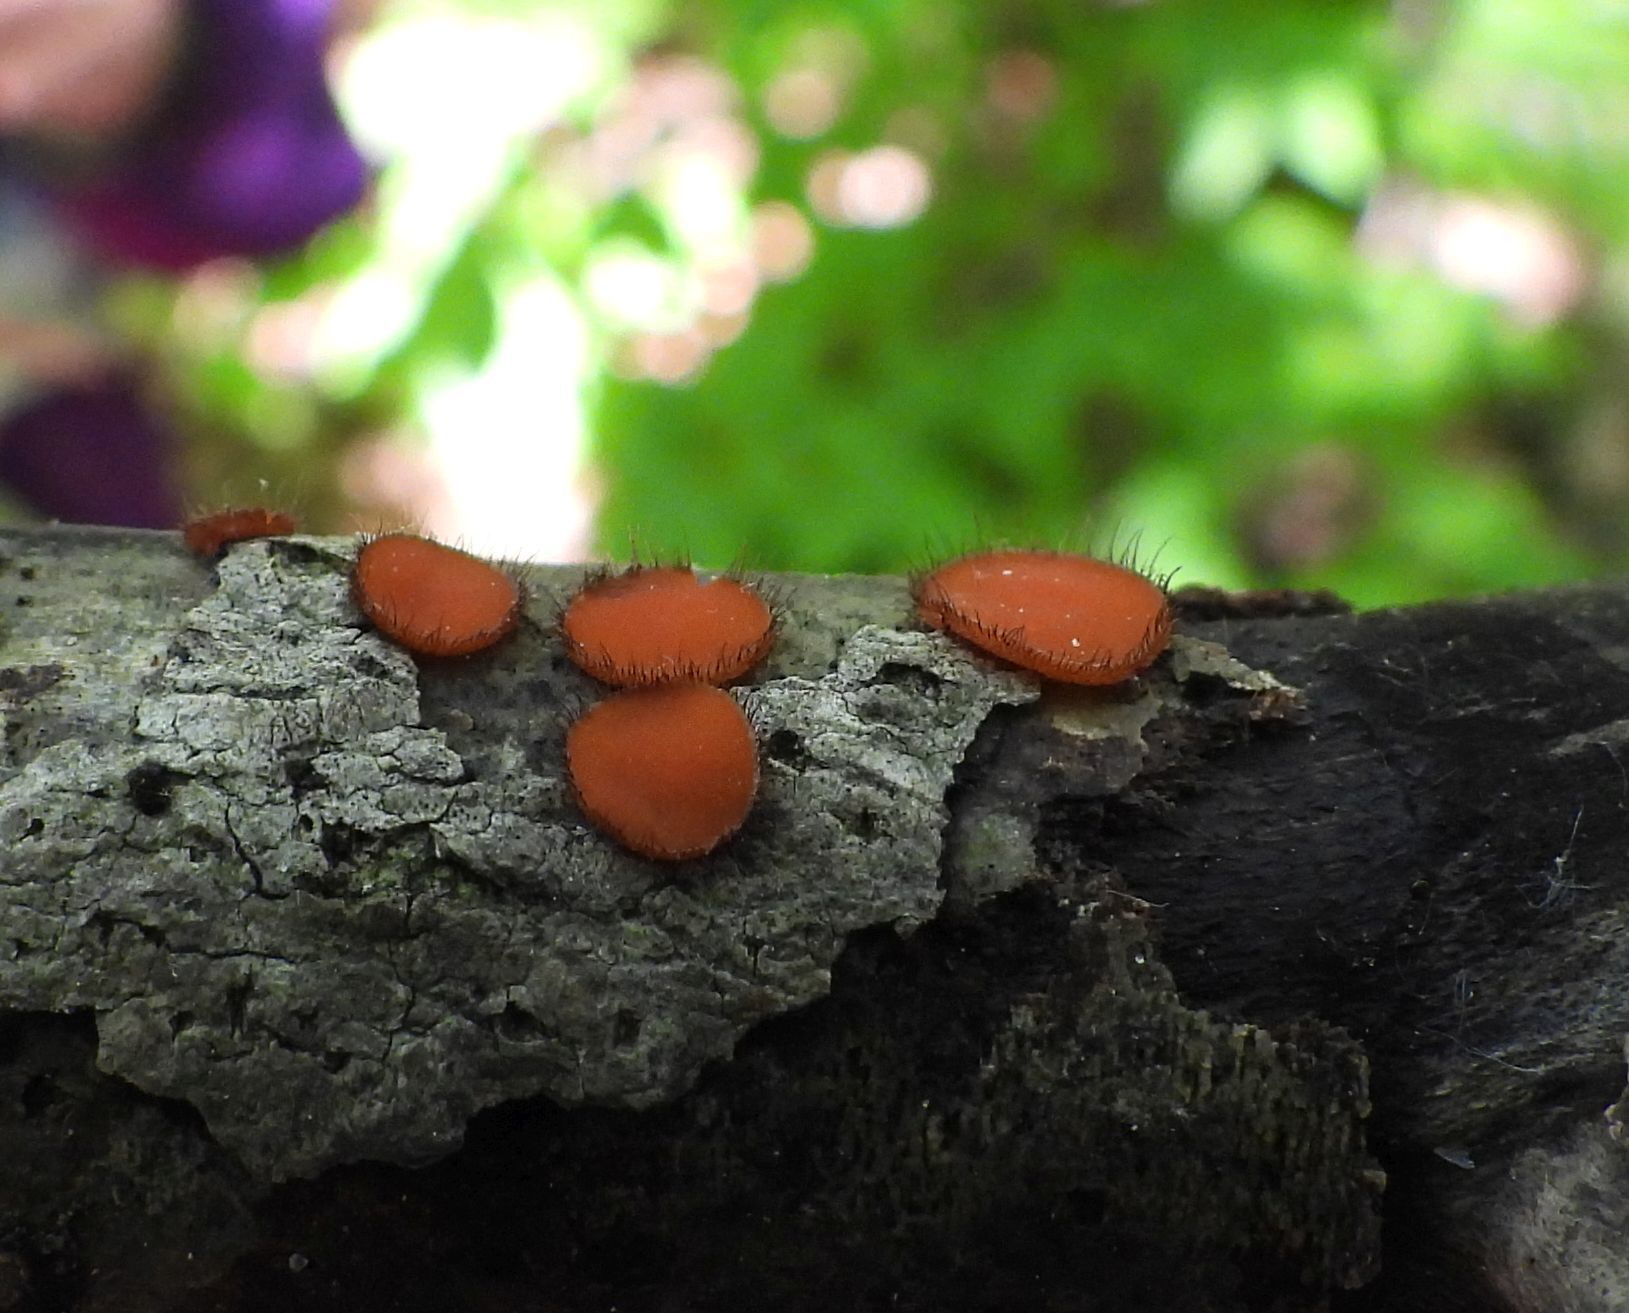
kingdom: Fungi
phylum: Ascomycota
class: Pezizomycetes
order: Pezizales
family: Pyronemataceae
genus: Scutellinia
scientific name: Scutellinia
